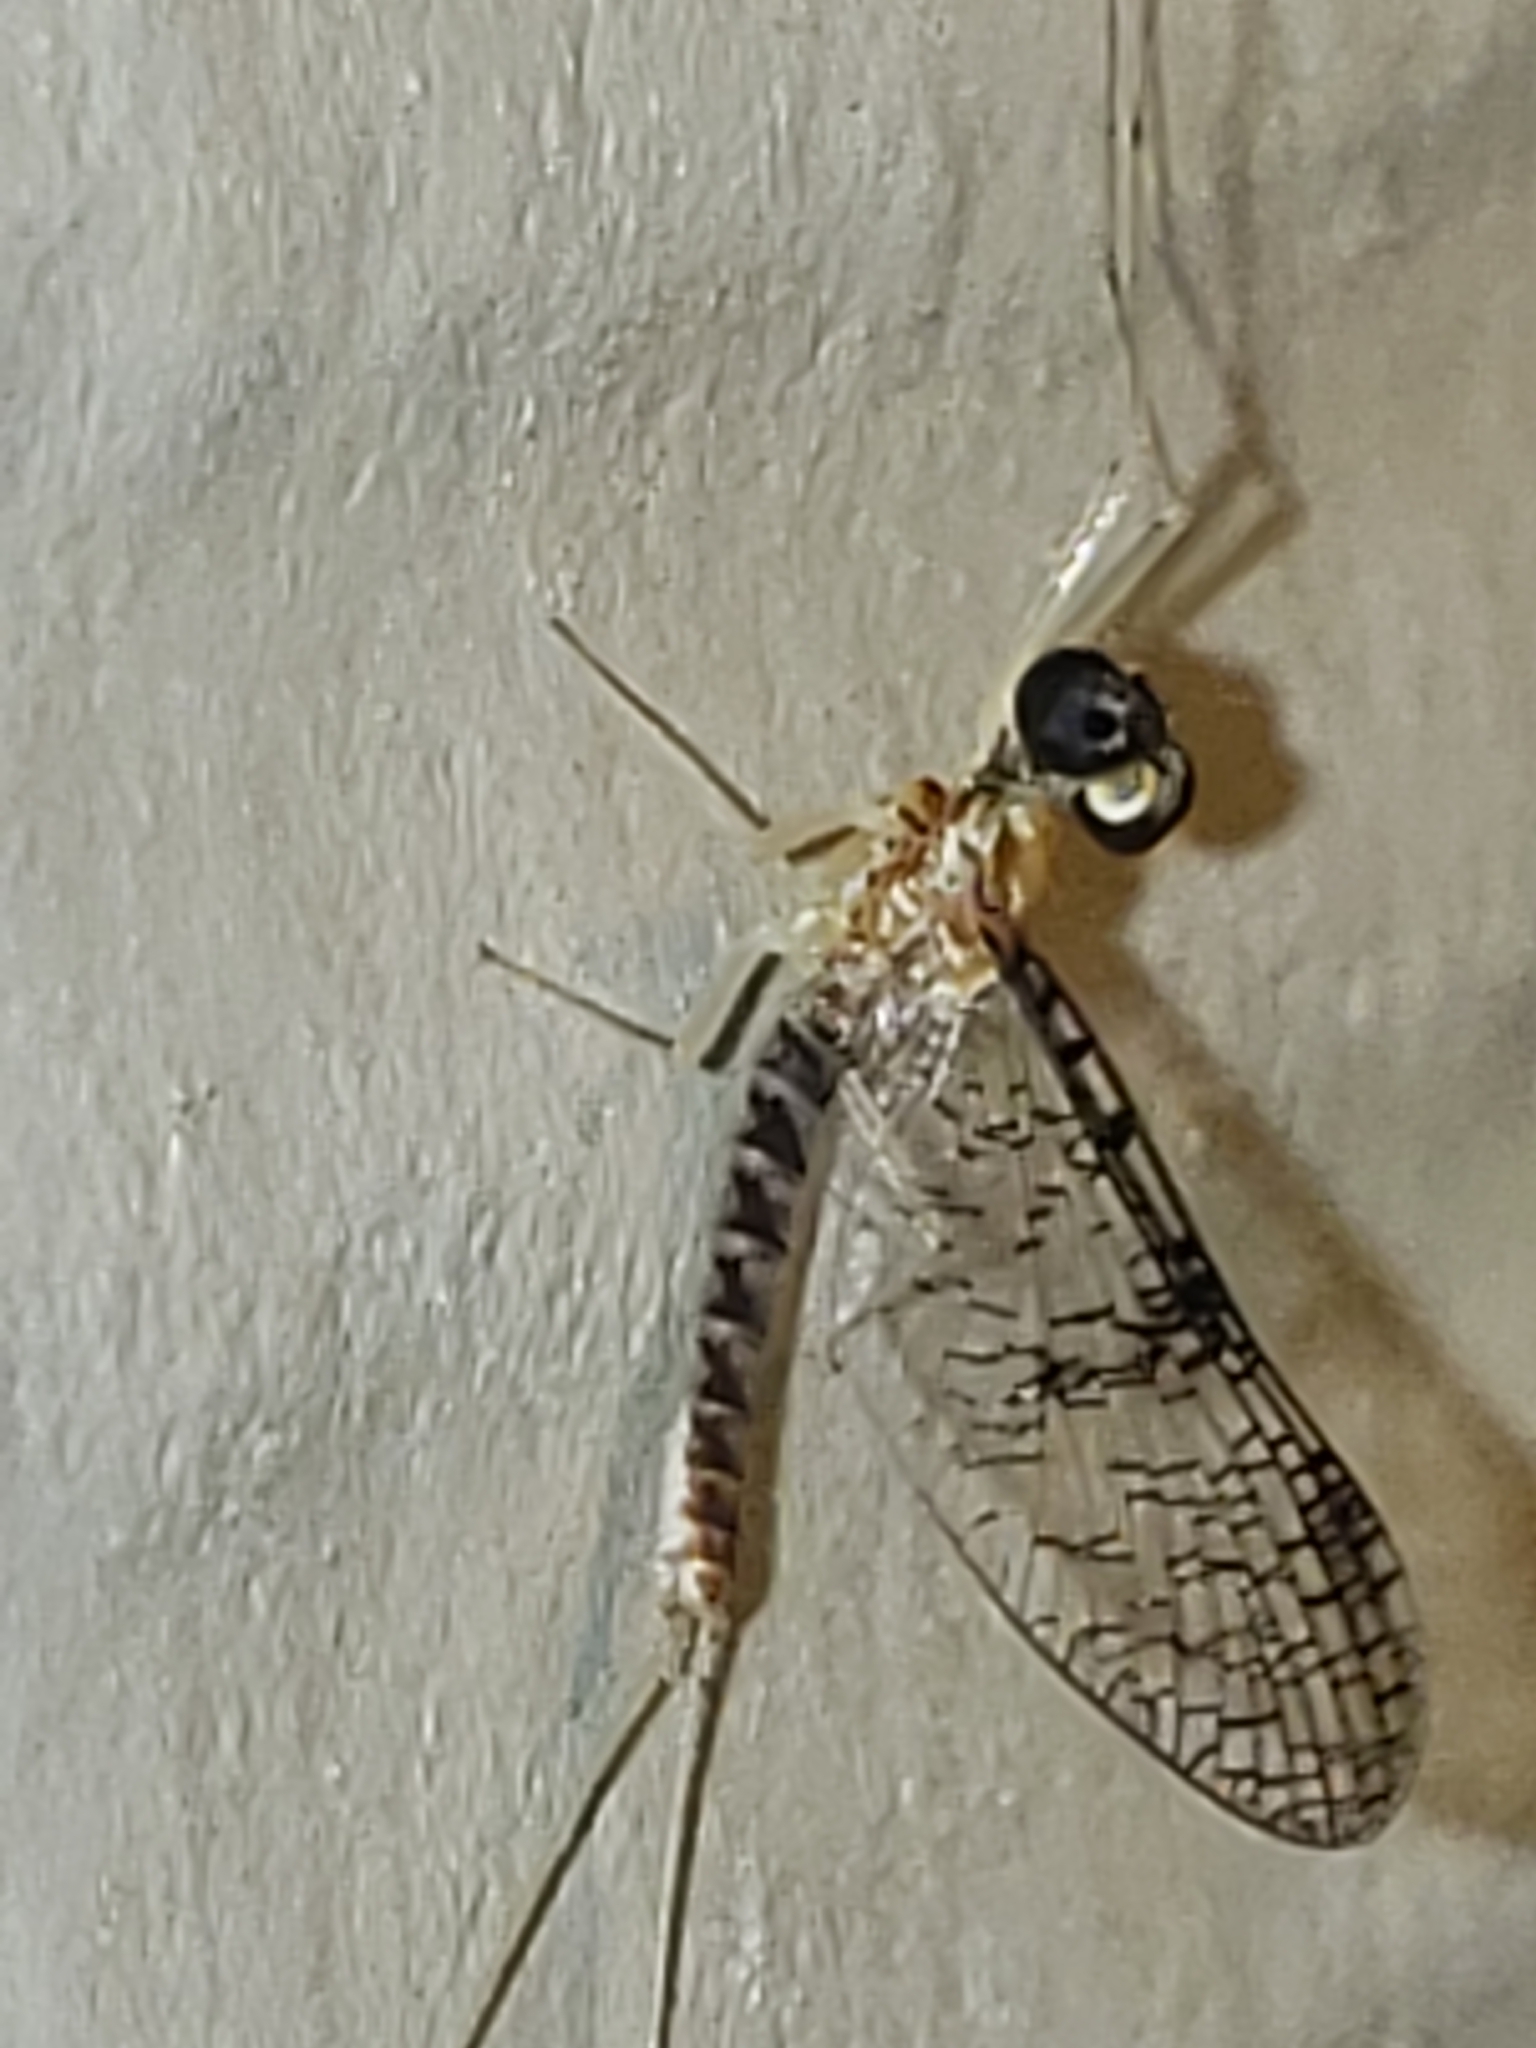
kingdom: Animalia
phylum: Arthropoda
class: Insecta
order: Ephemeroptera
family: Heptageniidae
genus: Leucrocuta
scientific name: Leucrocuta aphrodite
